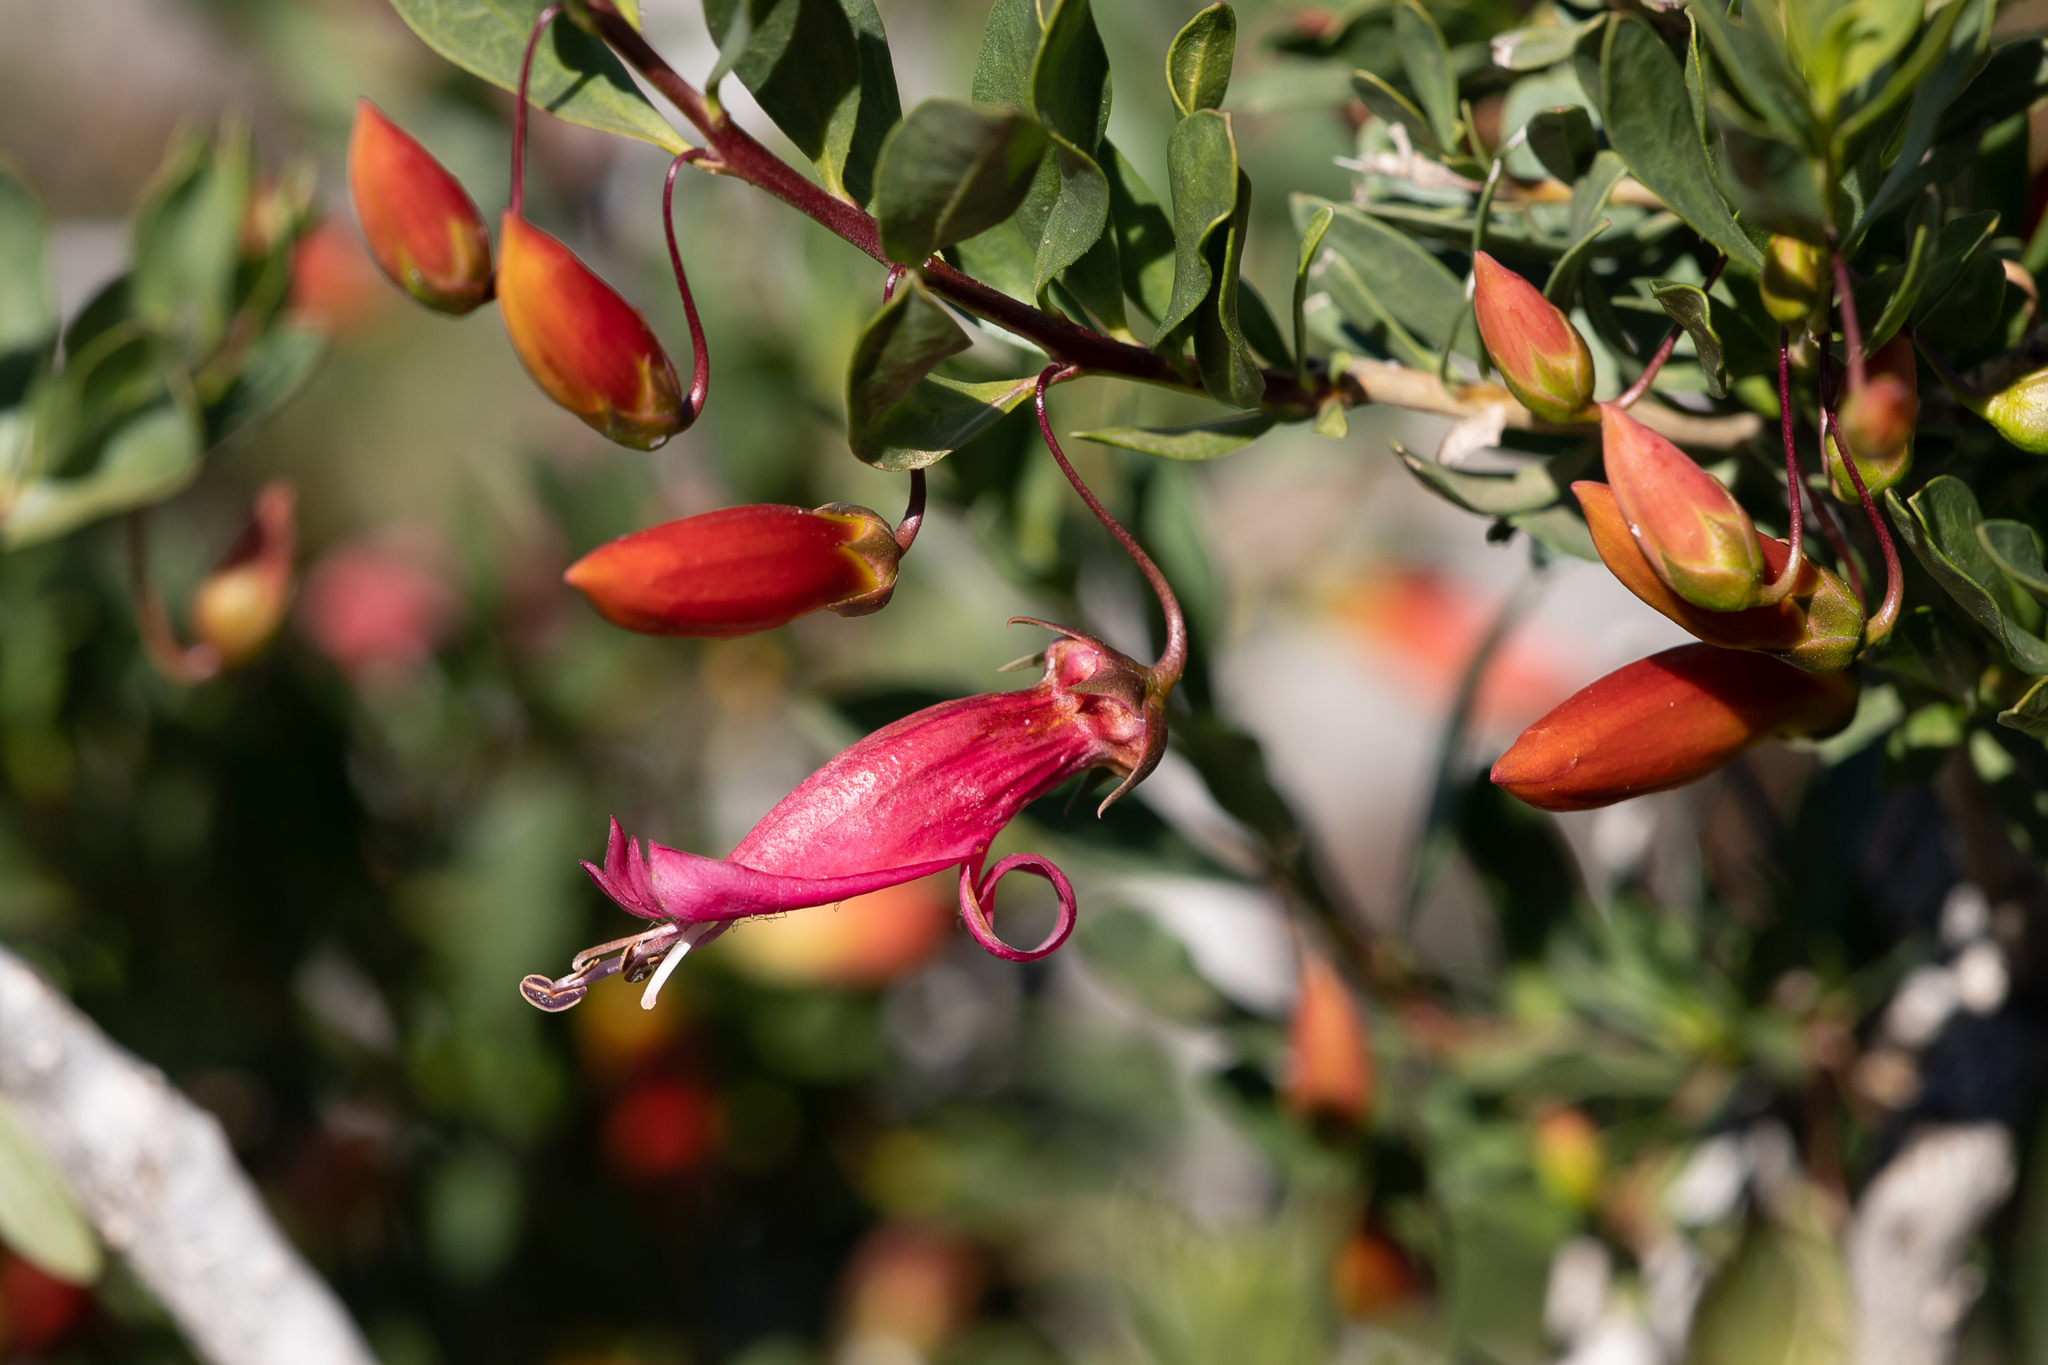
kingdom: Plantae
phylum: Tracheophyta
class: Magnoliopsida
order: Lamiales
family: Scrophulariaceae
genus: Eremophila
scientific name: Eremophila maculata
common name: Fuchsiabush
